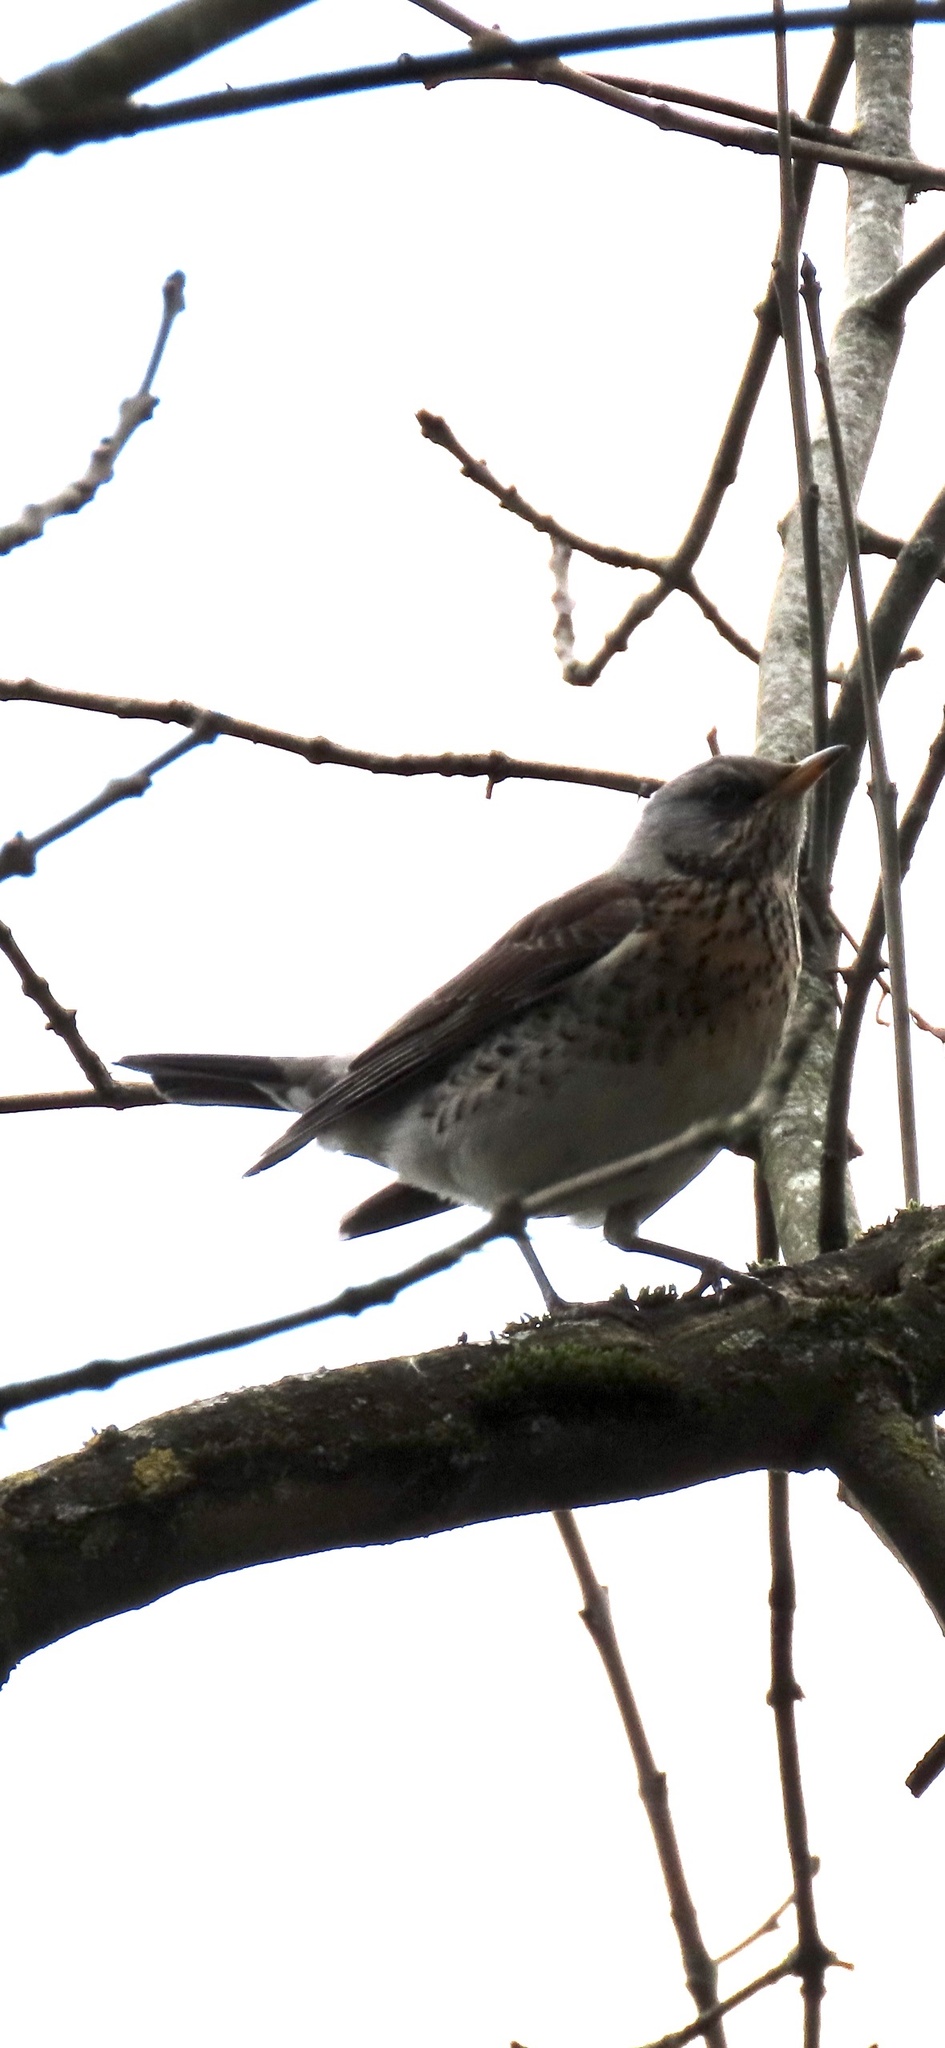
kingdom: Animalia
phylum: Chordata
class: Aves
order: Passeriformes
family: Turdidae
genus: Turdus
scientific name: Turdus pilaris
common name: Fieldfare
